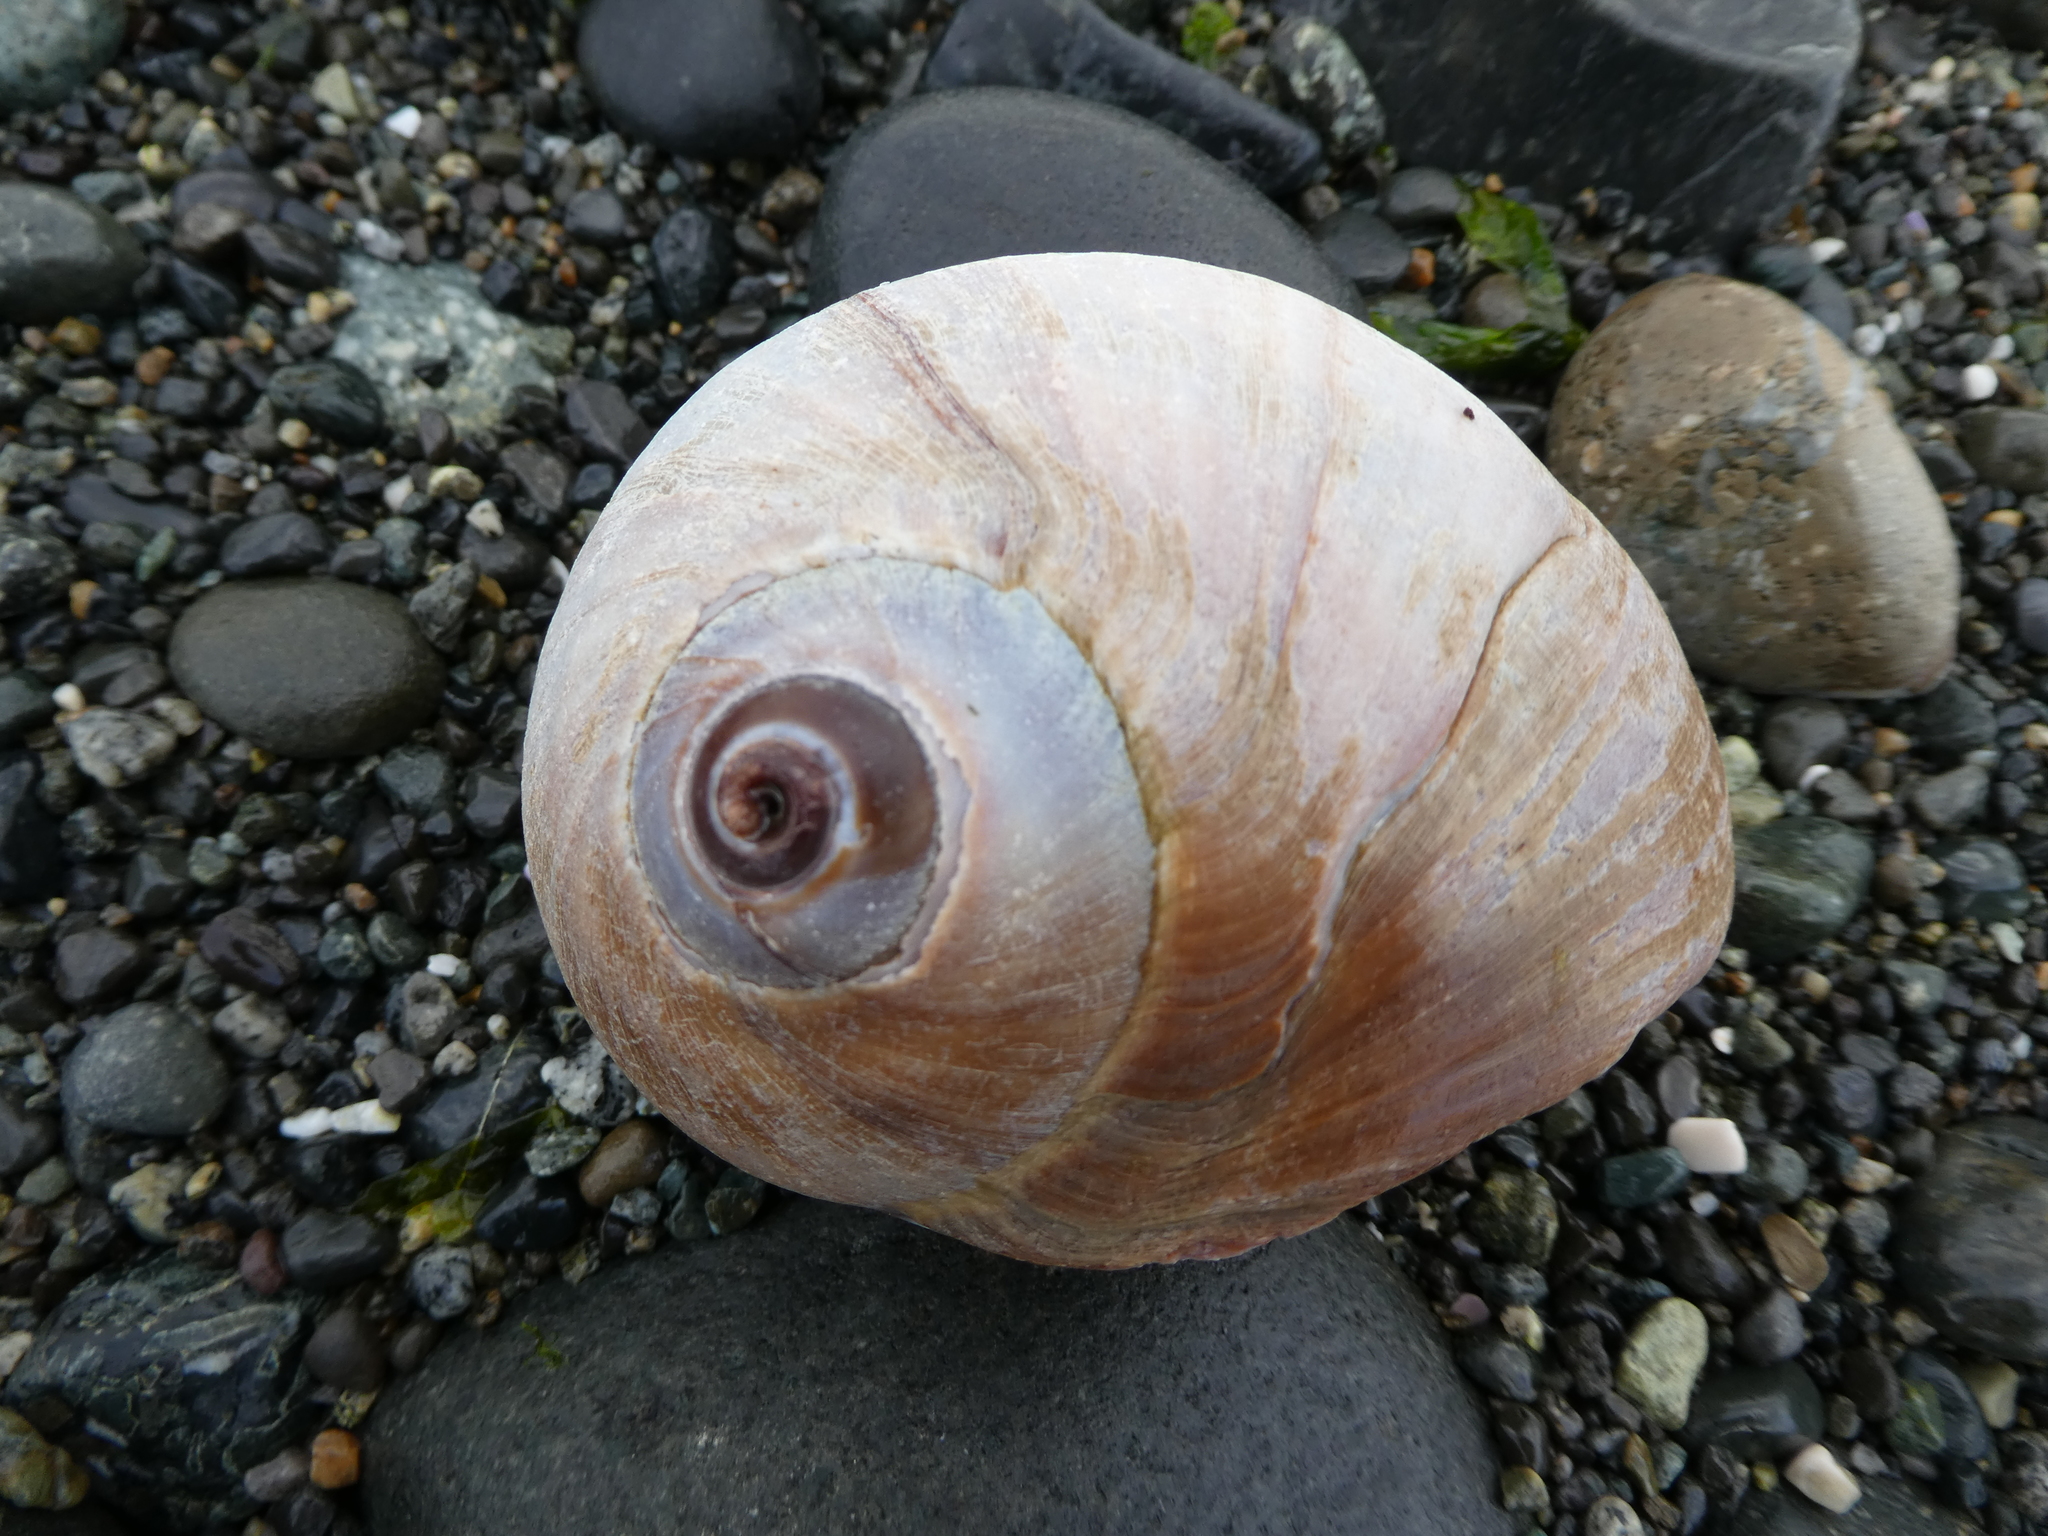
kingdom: Animalia
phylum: Mollusca
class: Gastropoda
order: Littorinimorpha
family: Naticidae
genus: Neverita
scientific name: Neverita lewisii
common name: Lewis' moonsnail
